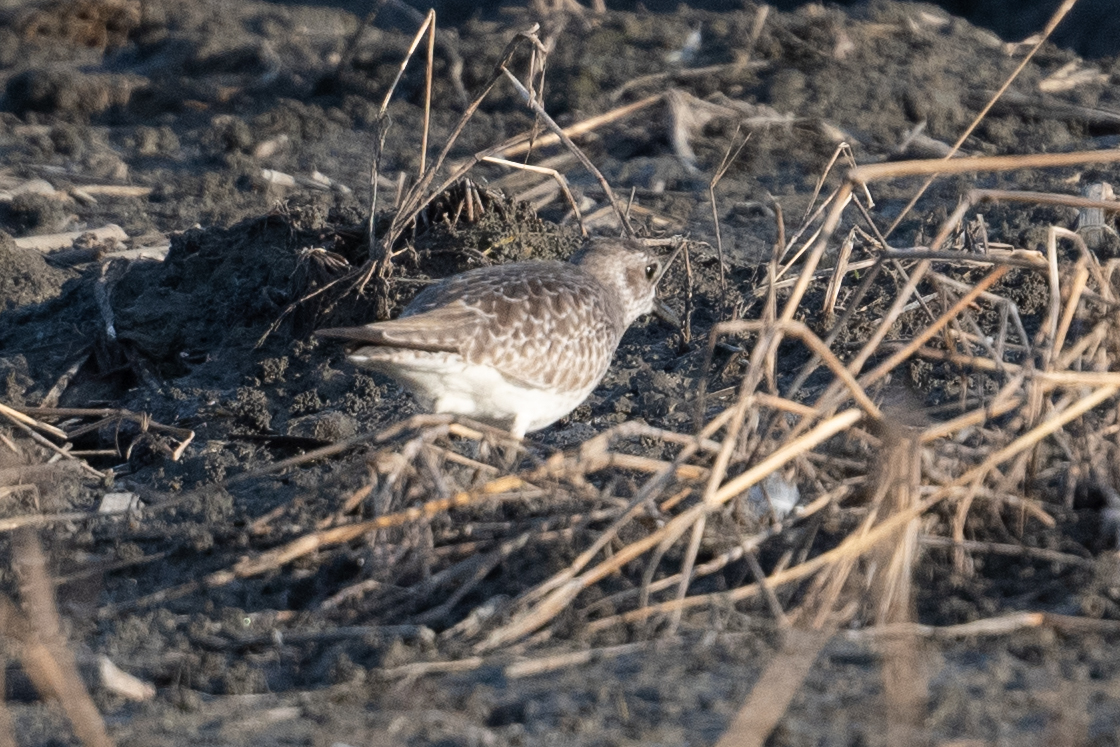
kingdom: Animalia
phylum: Chordata
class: Aves
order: Charadriiformes
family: Charadriidae
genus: Pluvialis
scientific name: Pluvialis squatarola
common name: Grey plover
